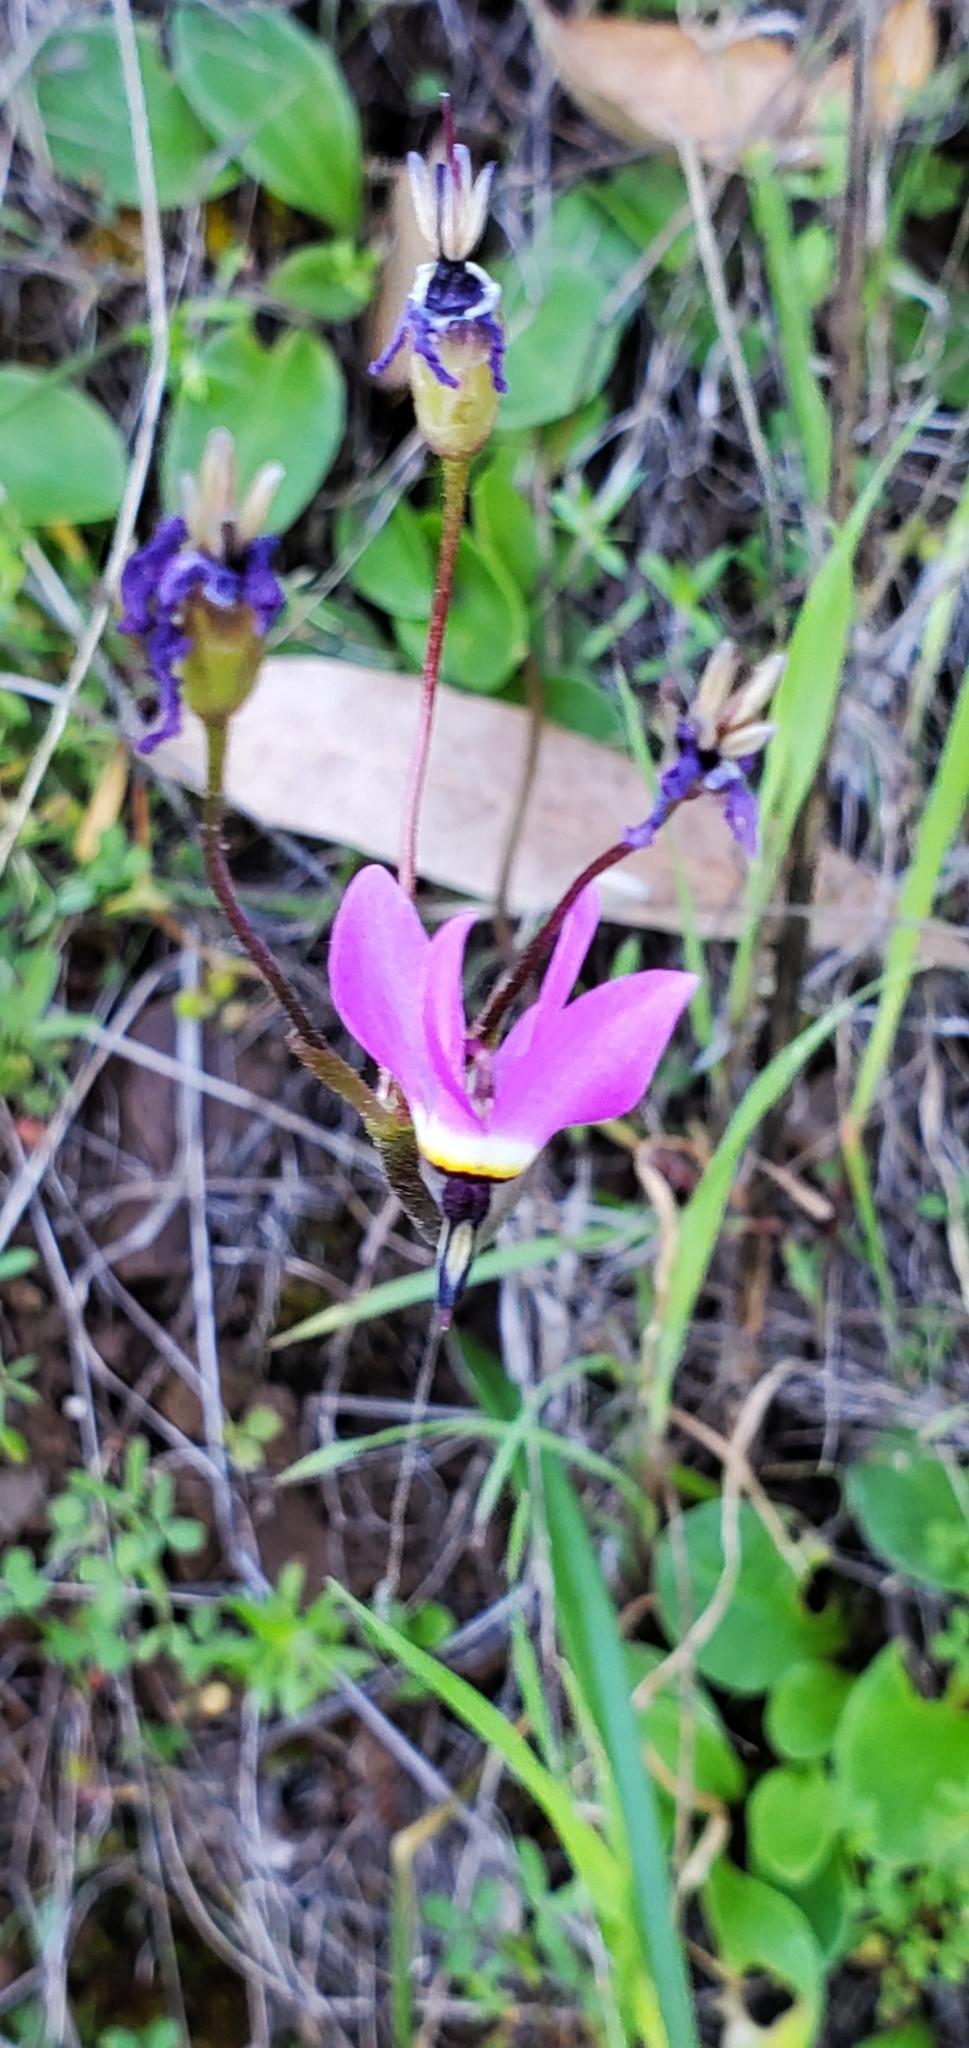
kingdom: Plantae
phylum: Tracheophyta
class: Magnoliopsida
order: Ericales
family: Primulaceae
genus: Dodecatheon
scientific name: Dodecatheon hendersonii
